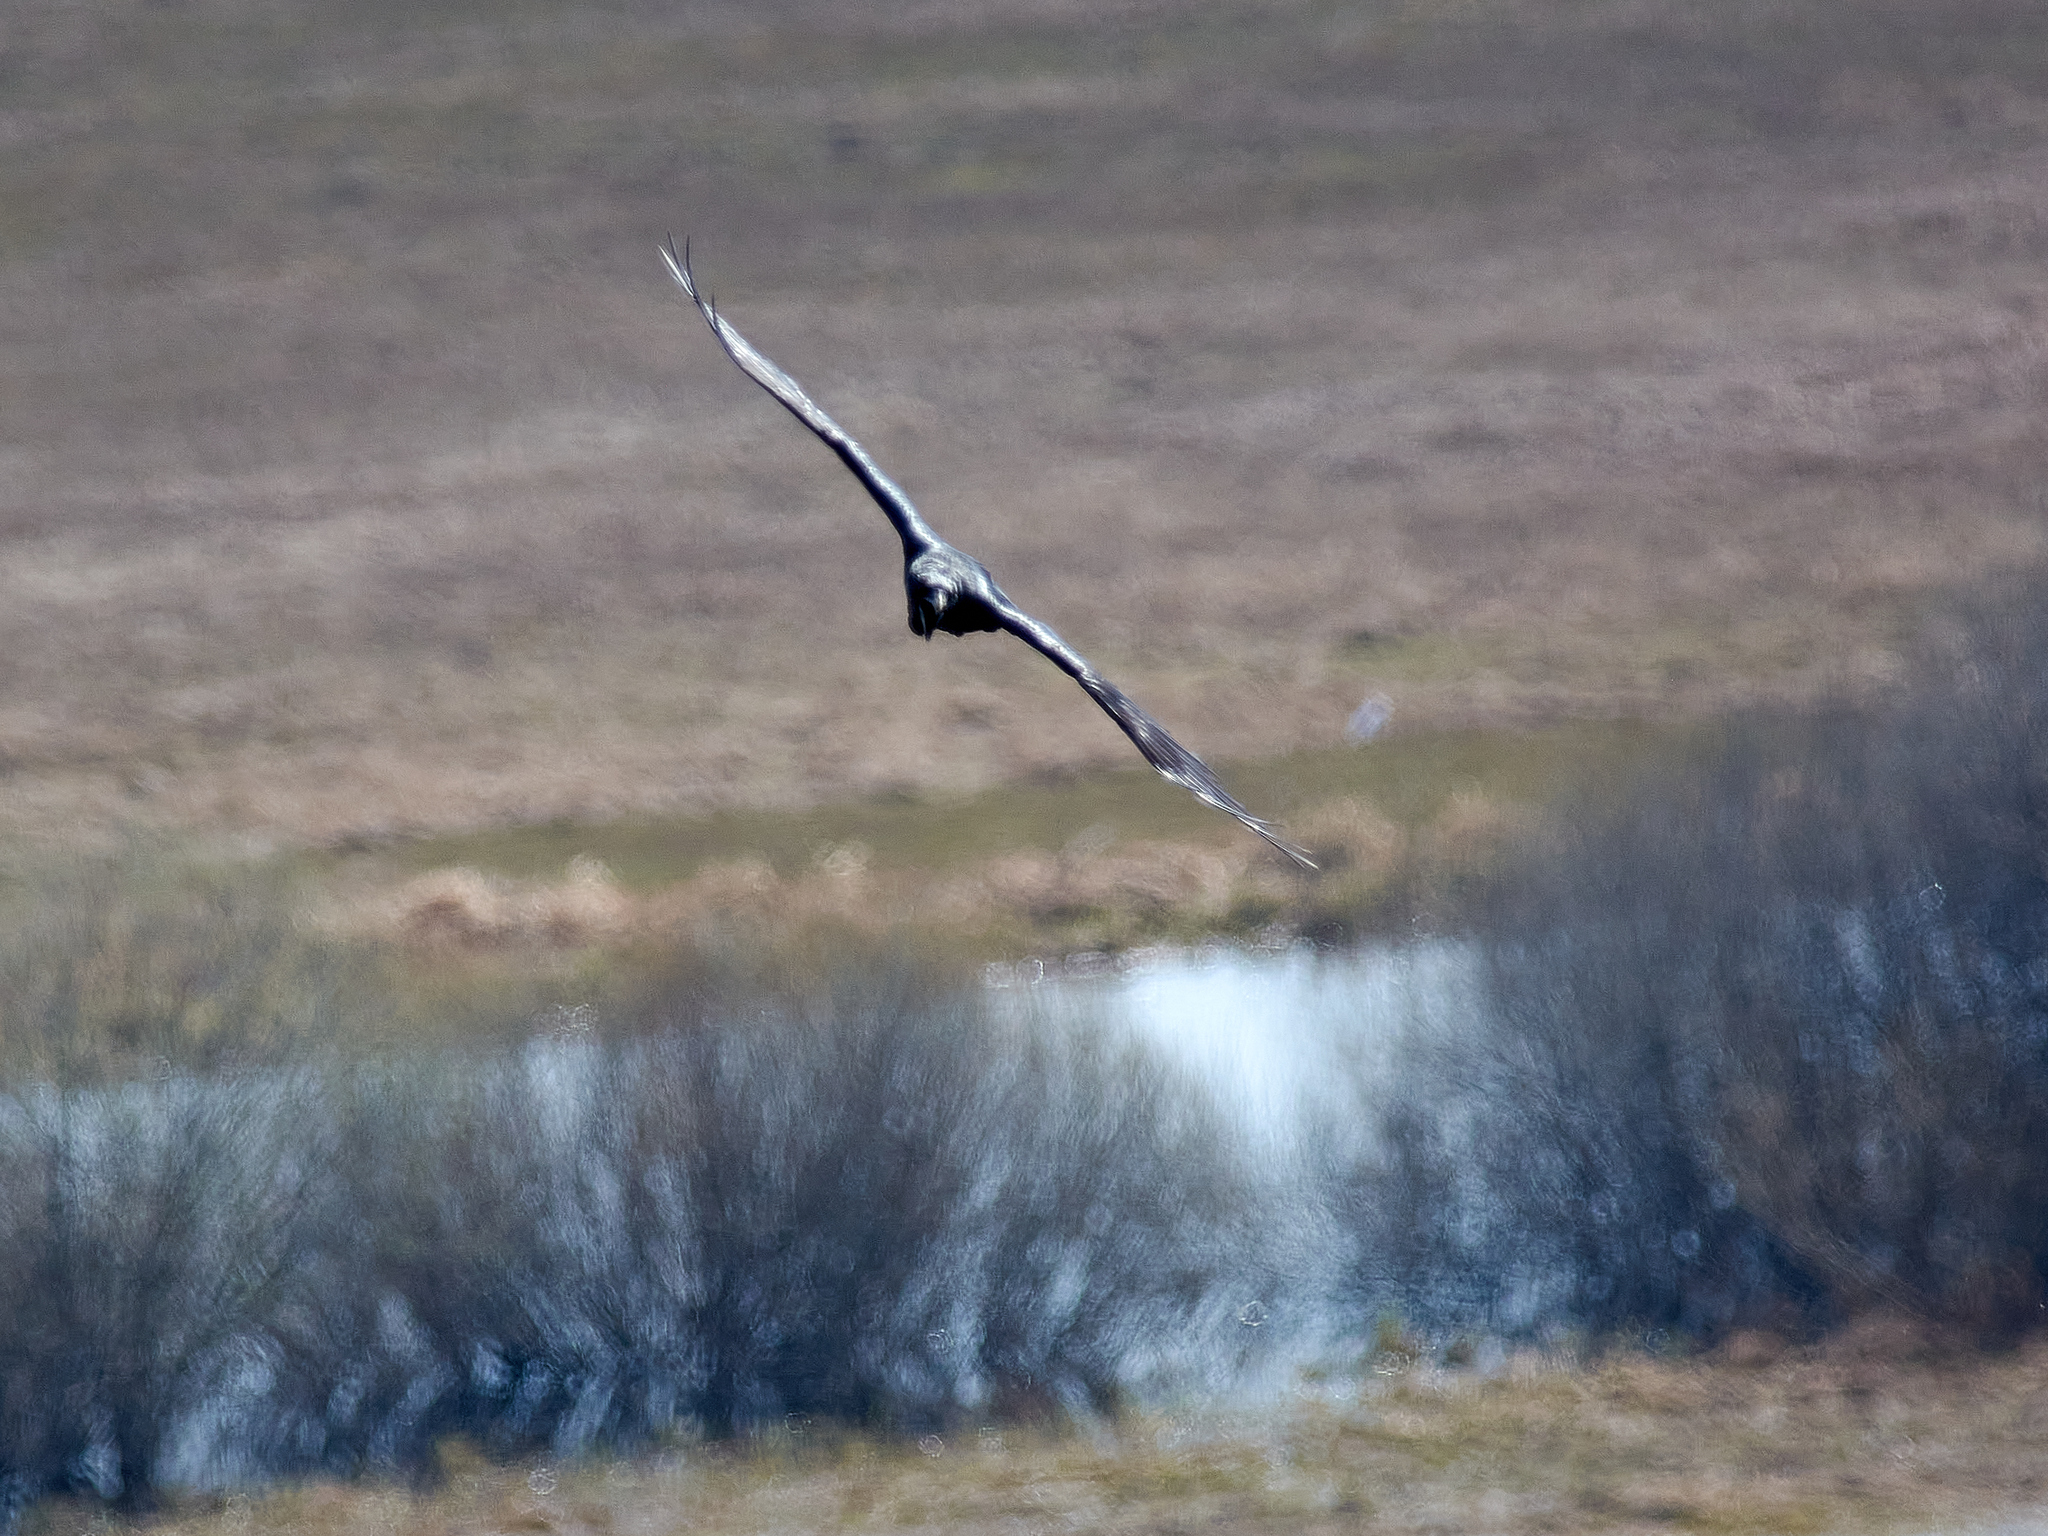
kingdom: Animalia
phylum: Chordata
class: Aves
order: Passeriformes
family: Corvidae
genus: Corvus
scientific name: Corvus corax
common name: Common raven
